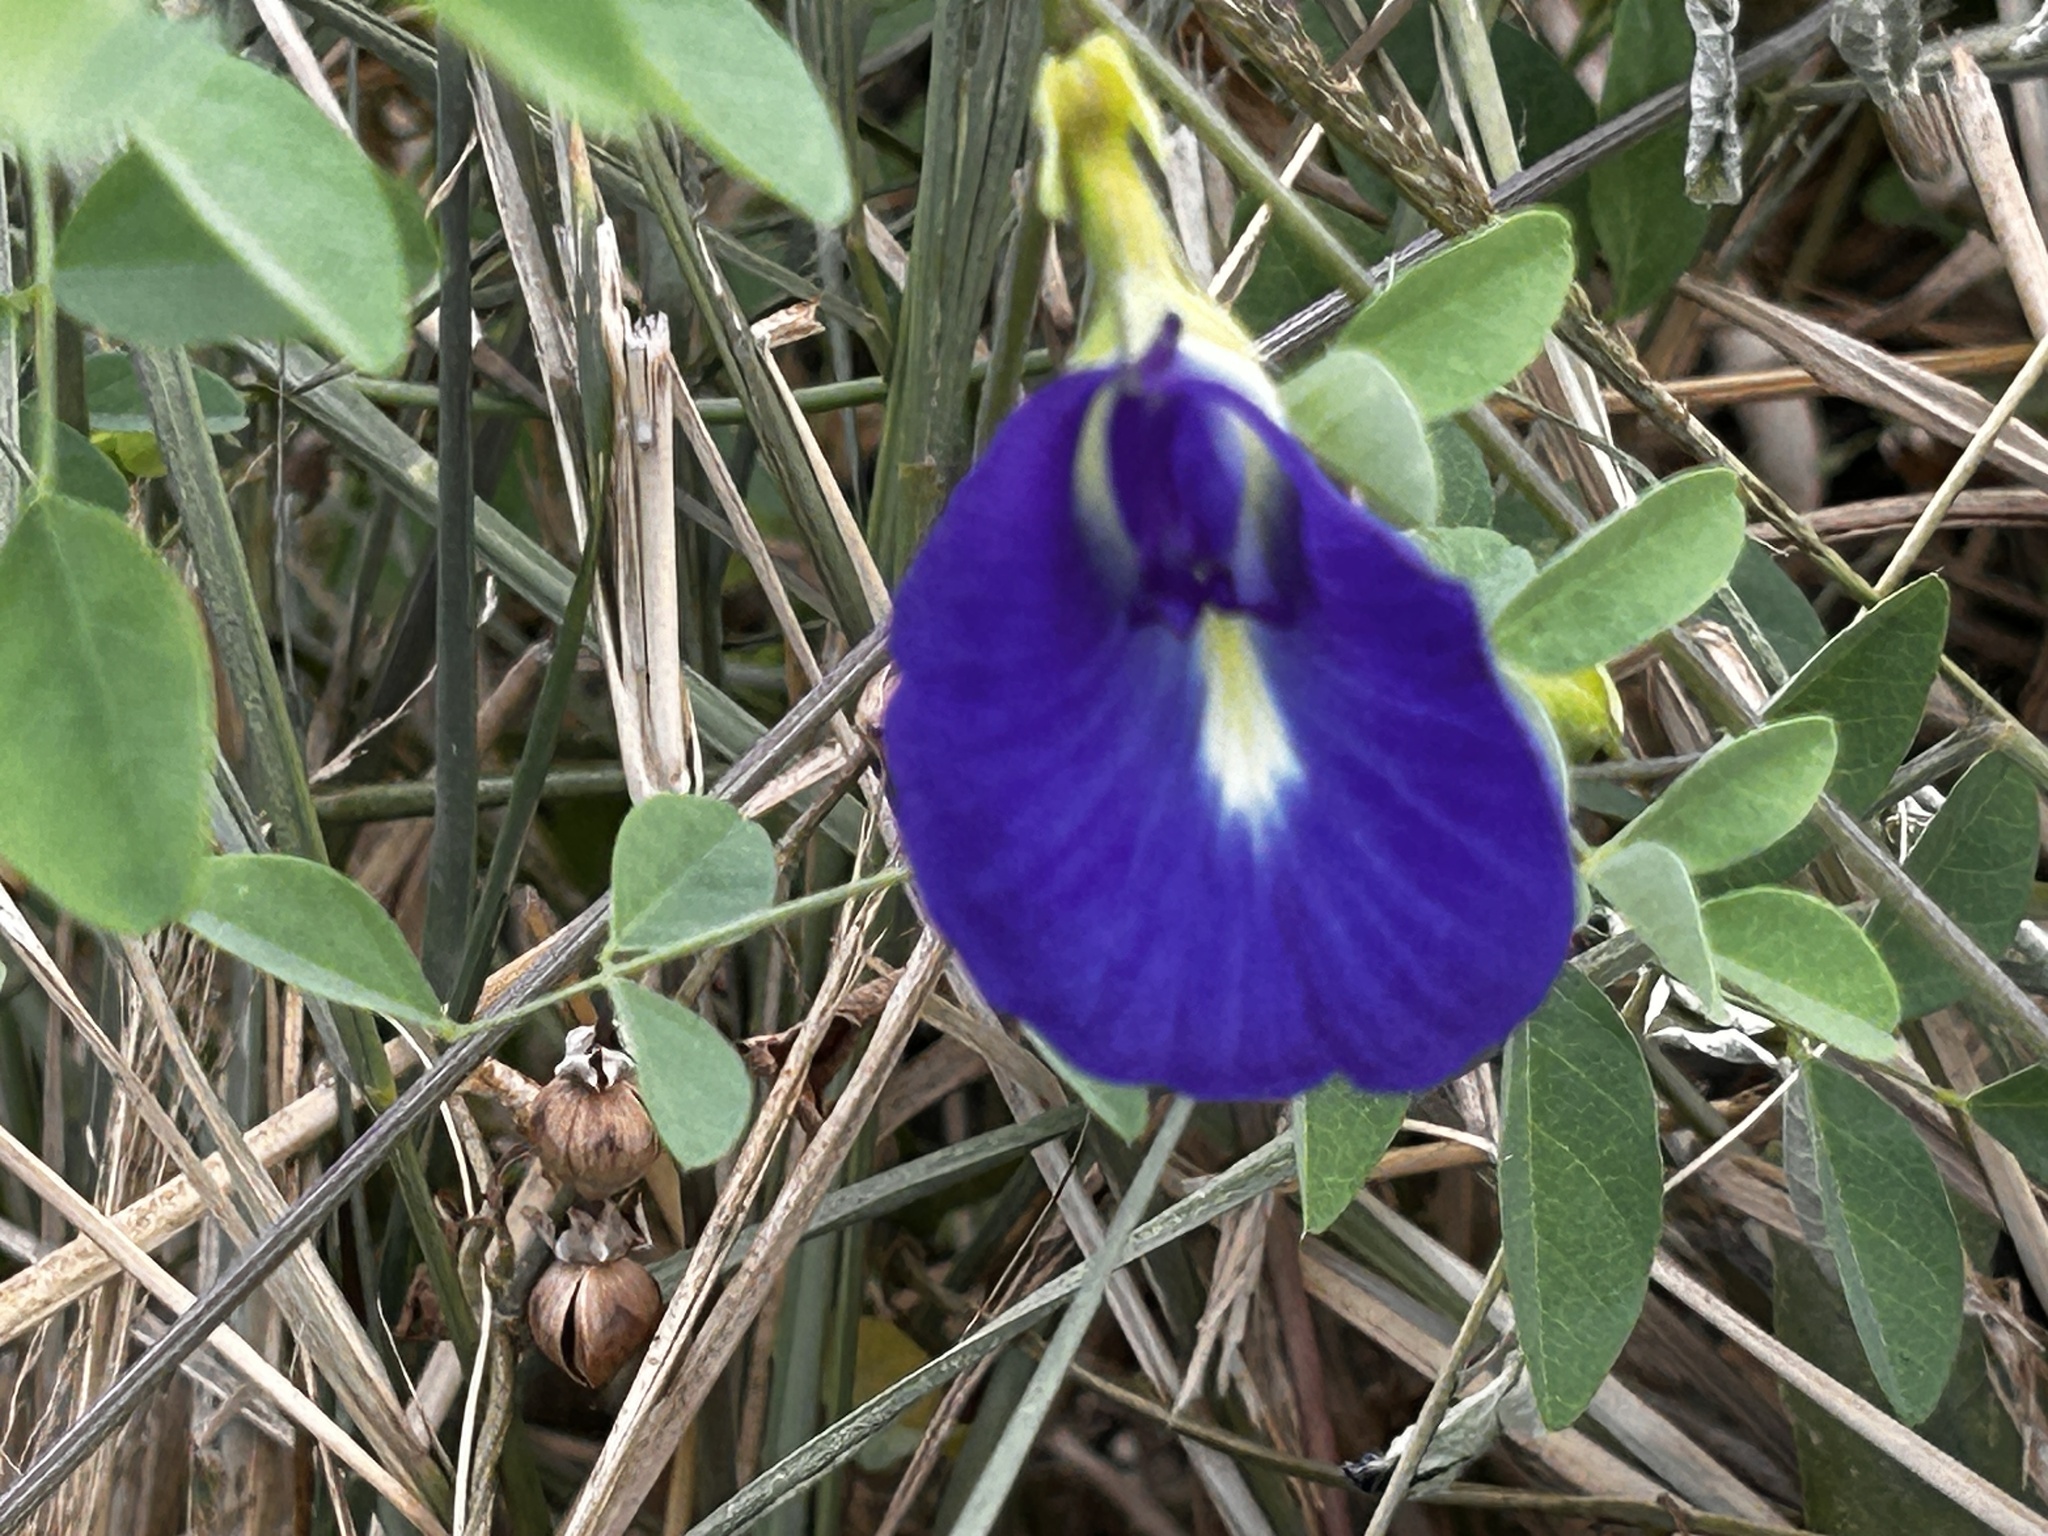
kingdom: Plantae
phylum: Tracheophyta
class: Magnoliopsida
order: Fabales
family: Fabaceae
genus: Clitoria
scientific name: Clitoria ternatea
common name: Asian pigeonwings
